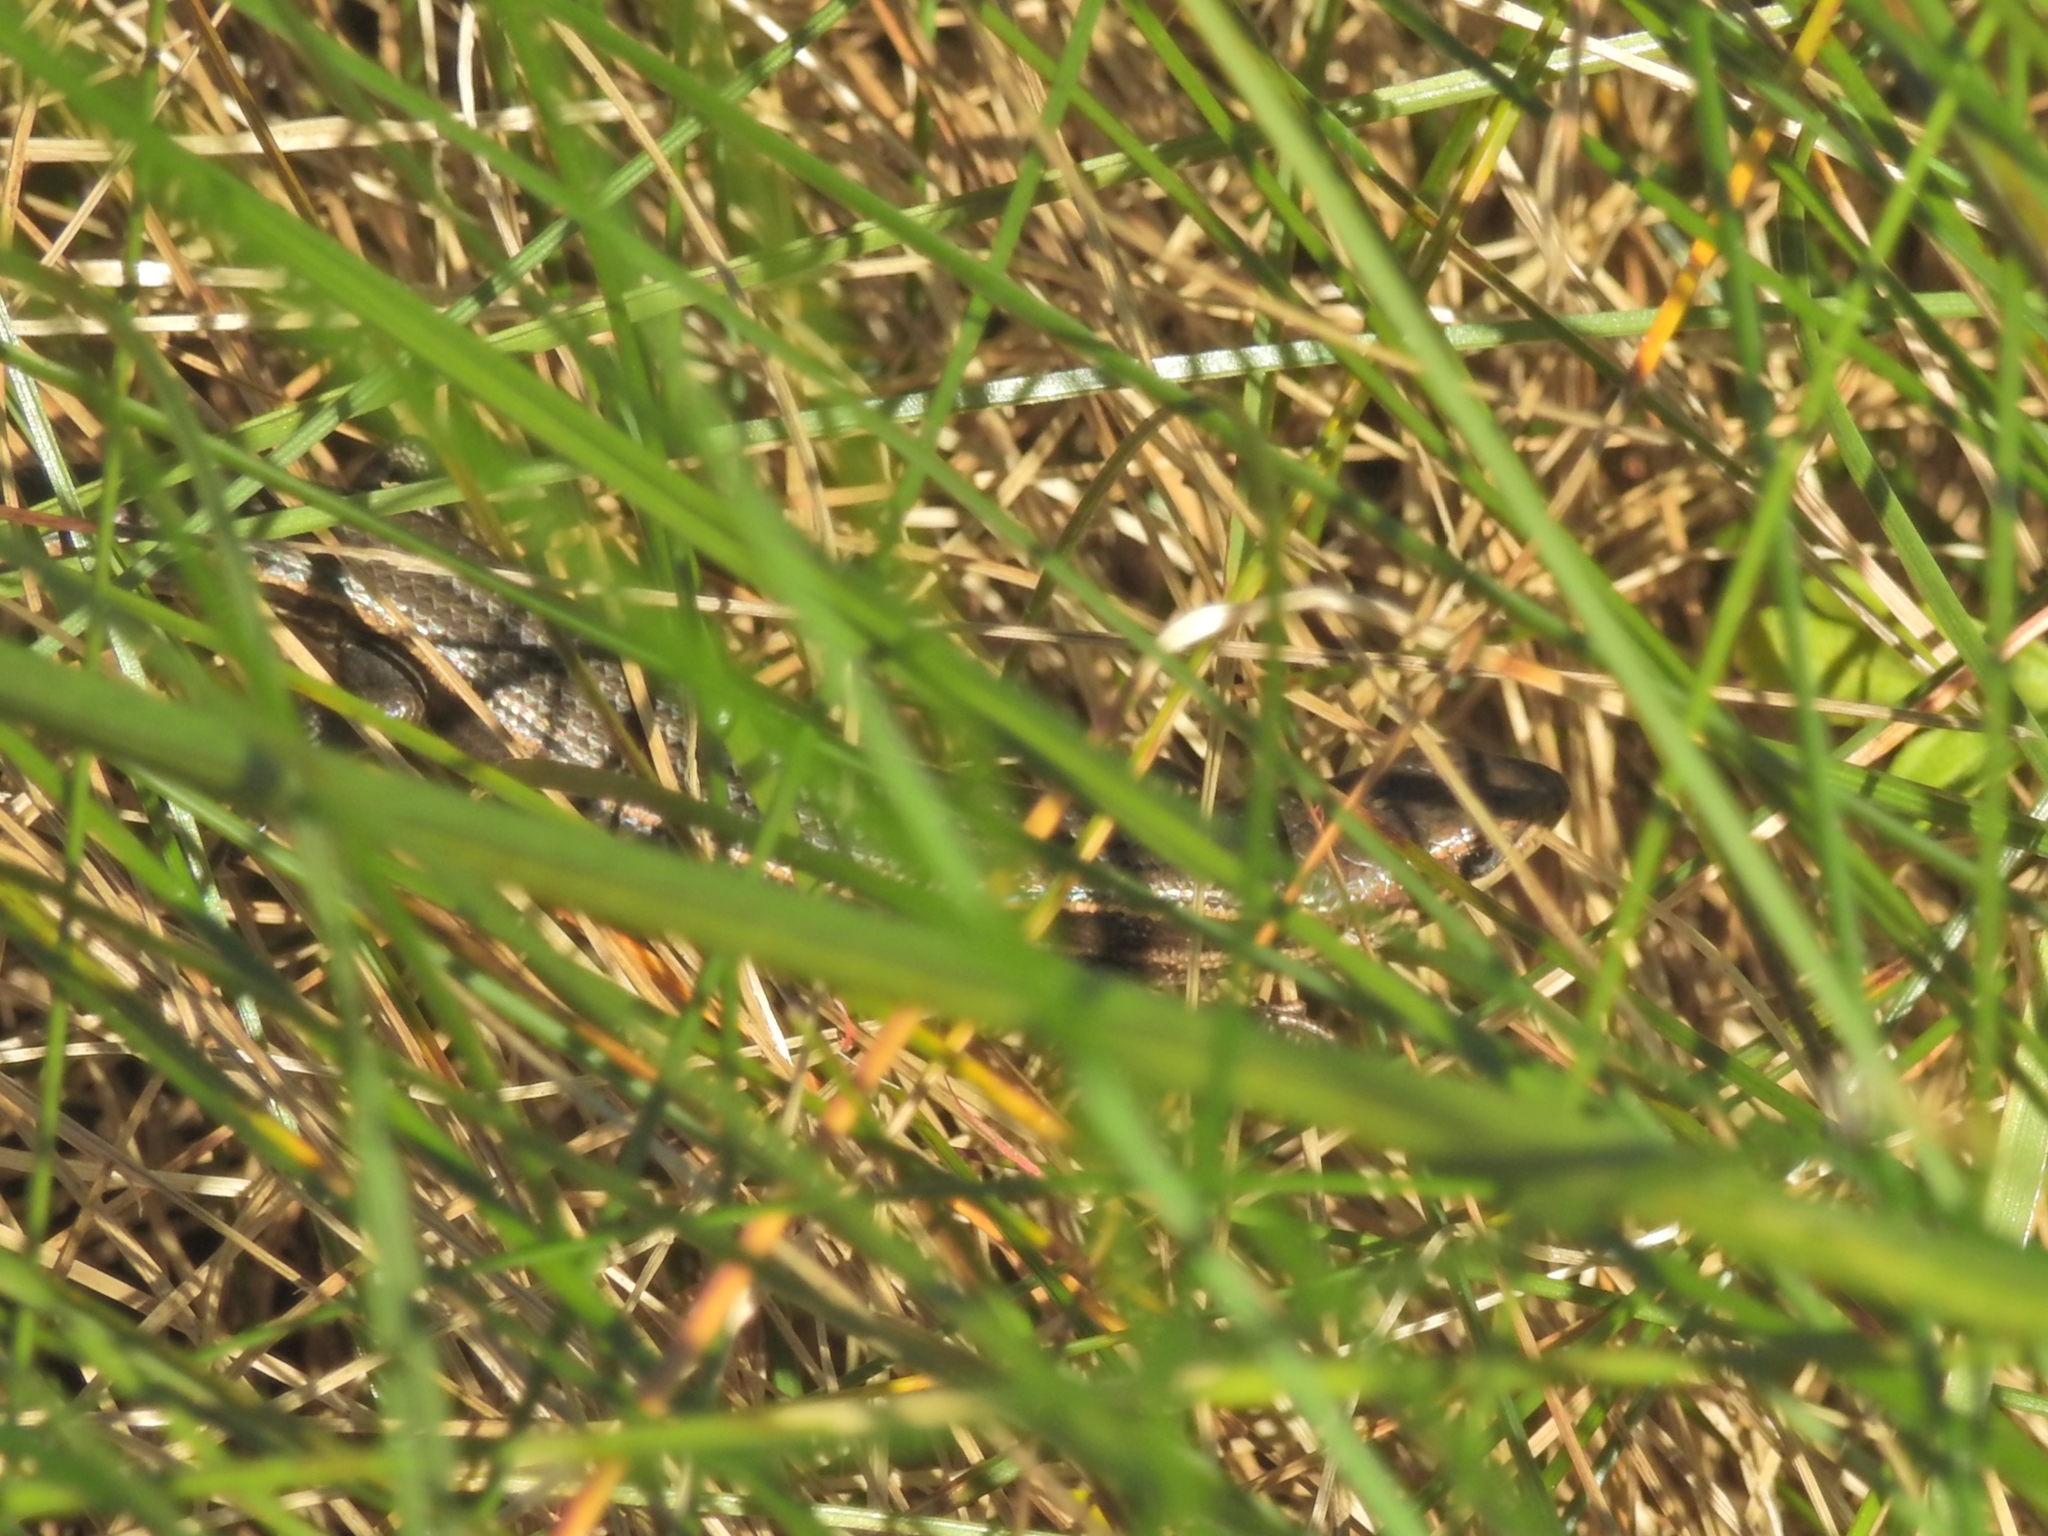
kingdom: Animalia
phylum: Chordata
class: Squamata
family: Scincidae
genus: Pseudemoia
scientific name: Pseudemoia pagenstecheri
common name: Southern grass tussock skink
